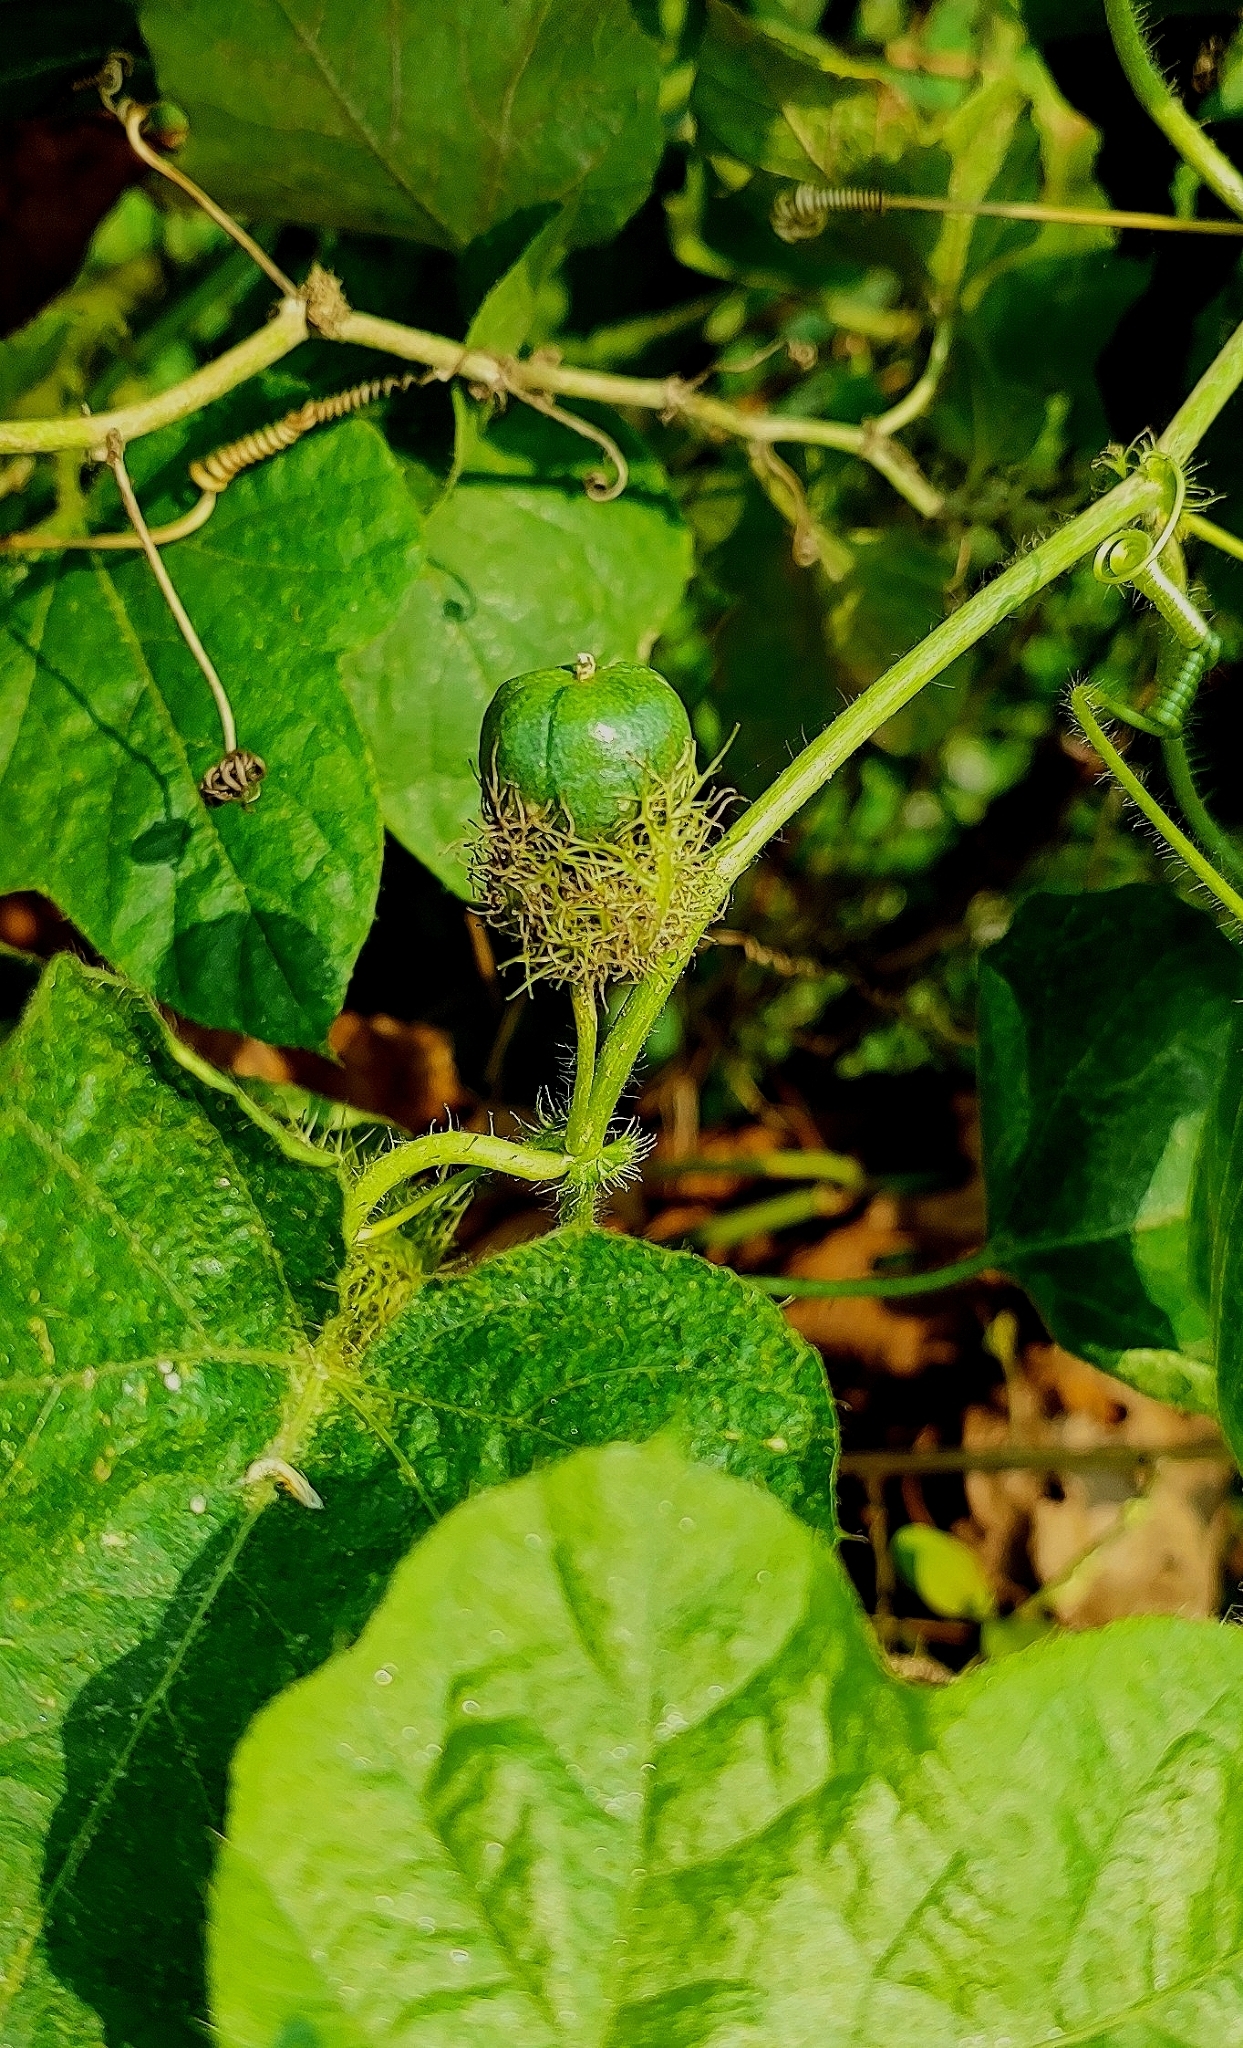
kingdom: Plantae
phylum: Tracheophyta
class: Magnoliopsida
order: Malpighiales
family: Passifloraceae
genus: Passiflora
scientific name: Passiflora foetida
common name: Fetid passionflower
